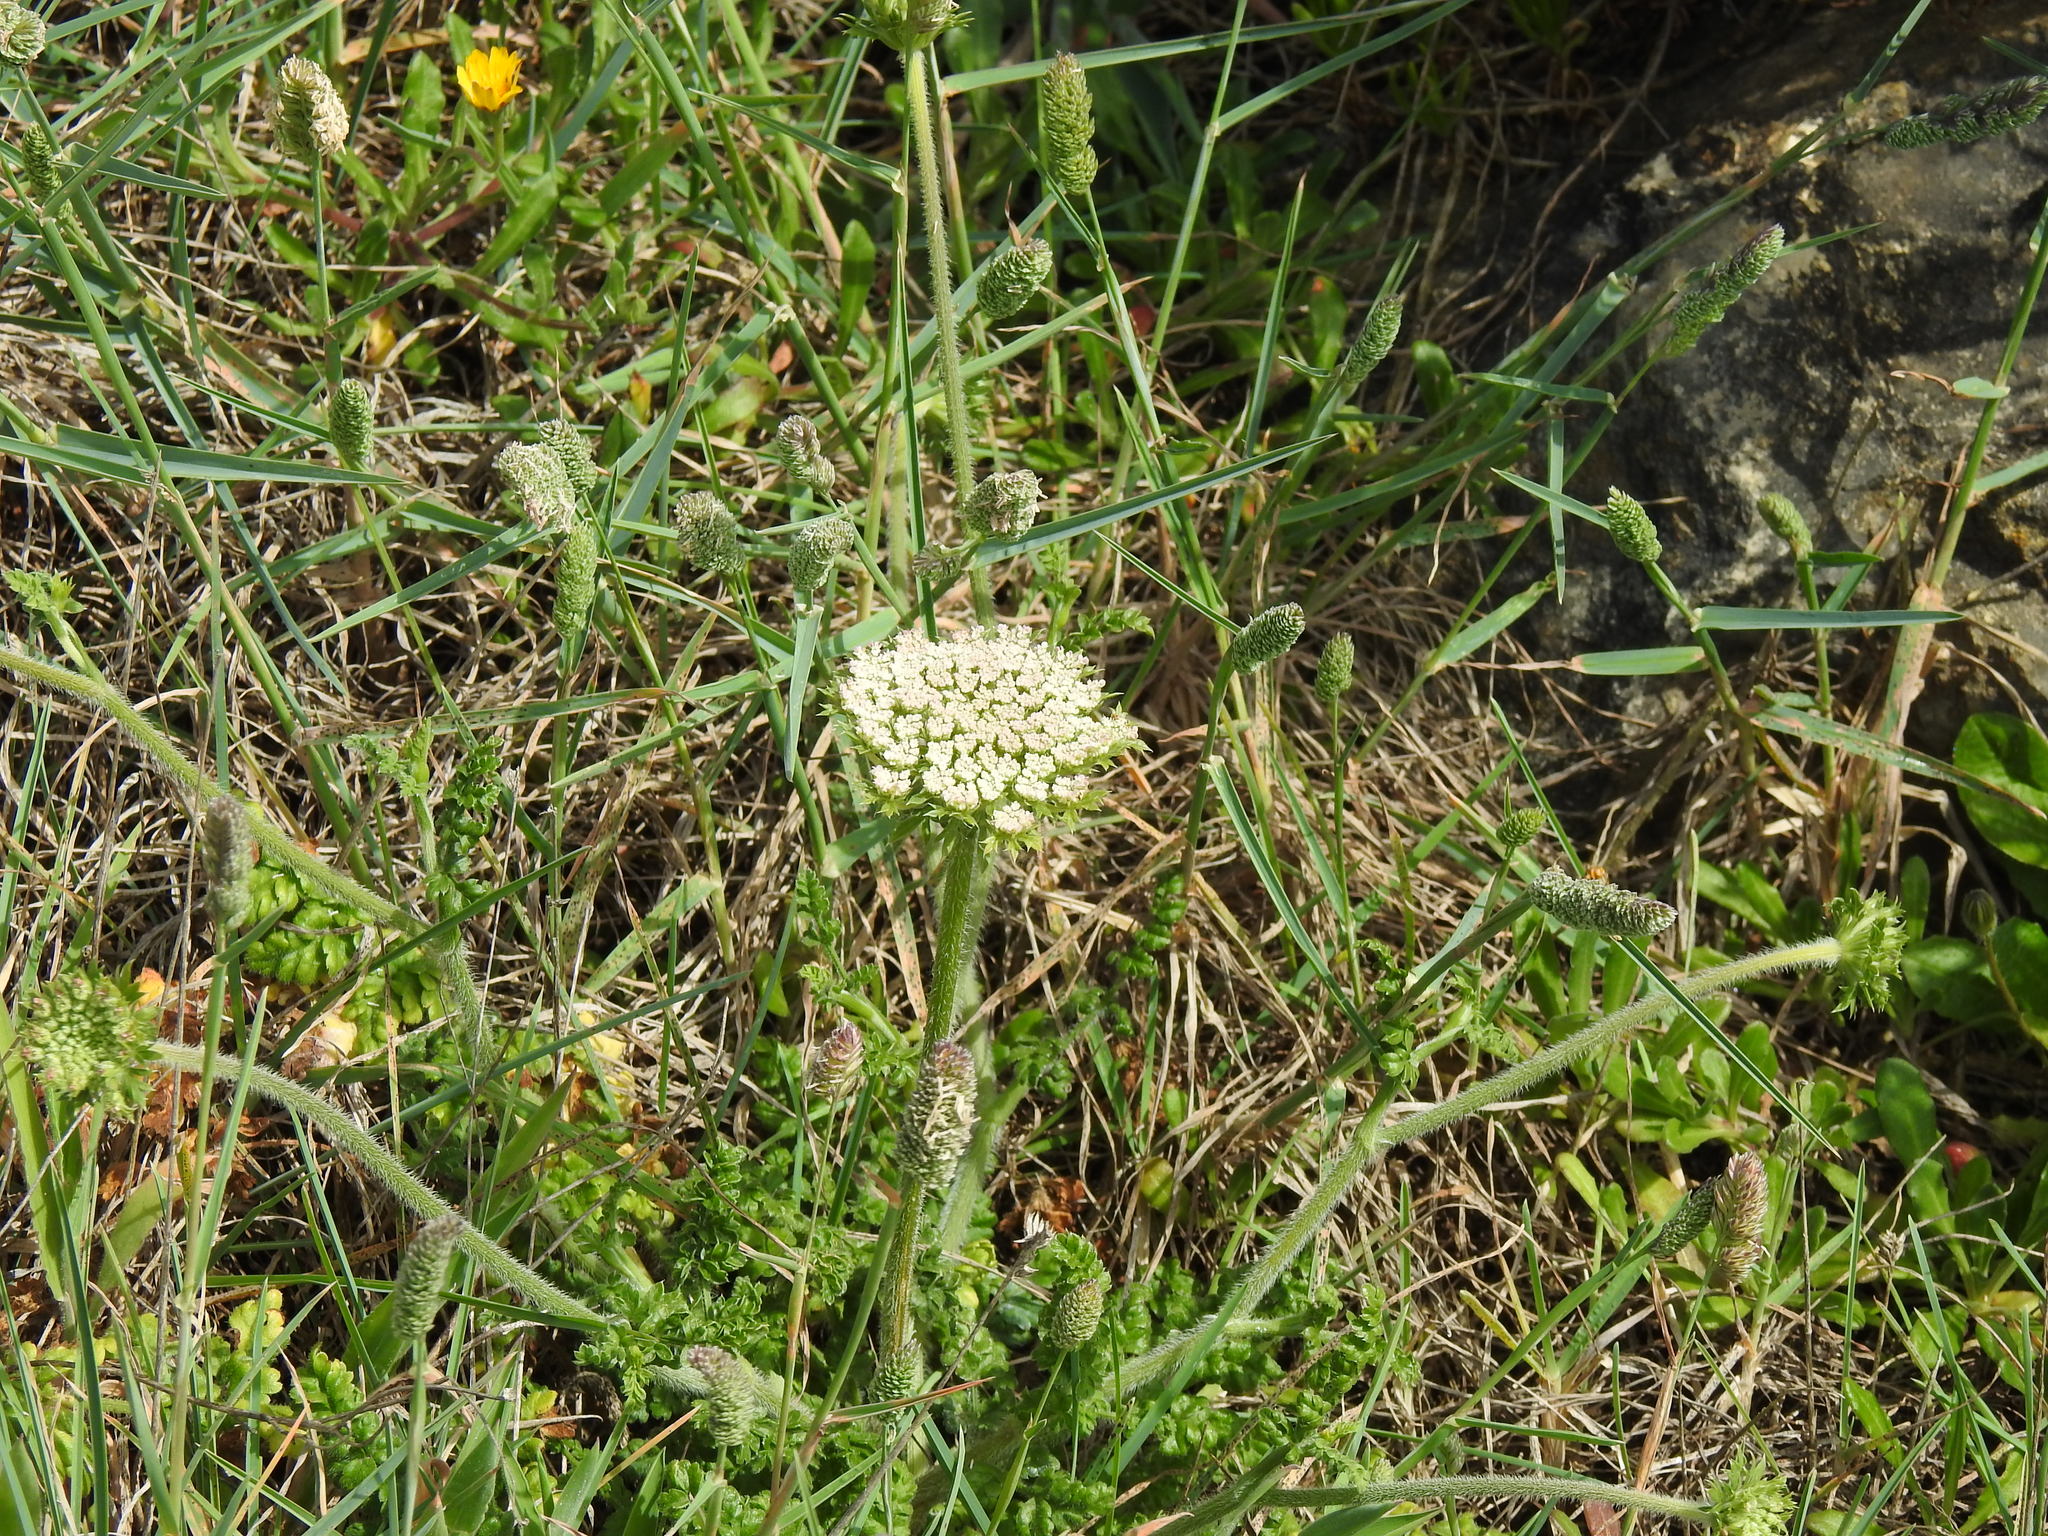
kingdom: Plantae
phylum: Tracheophyta
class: Magnoliopsida
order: Apiales
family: Apiaceae
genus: Daucus
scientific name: Daucus carota
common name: Wild carrot
